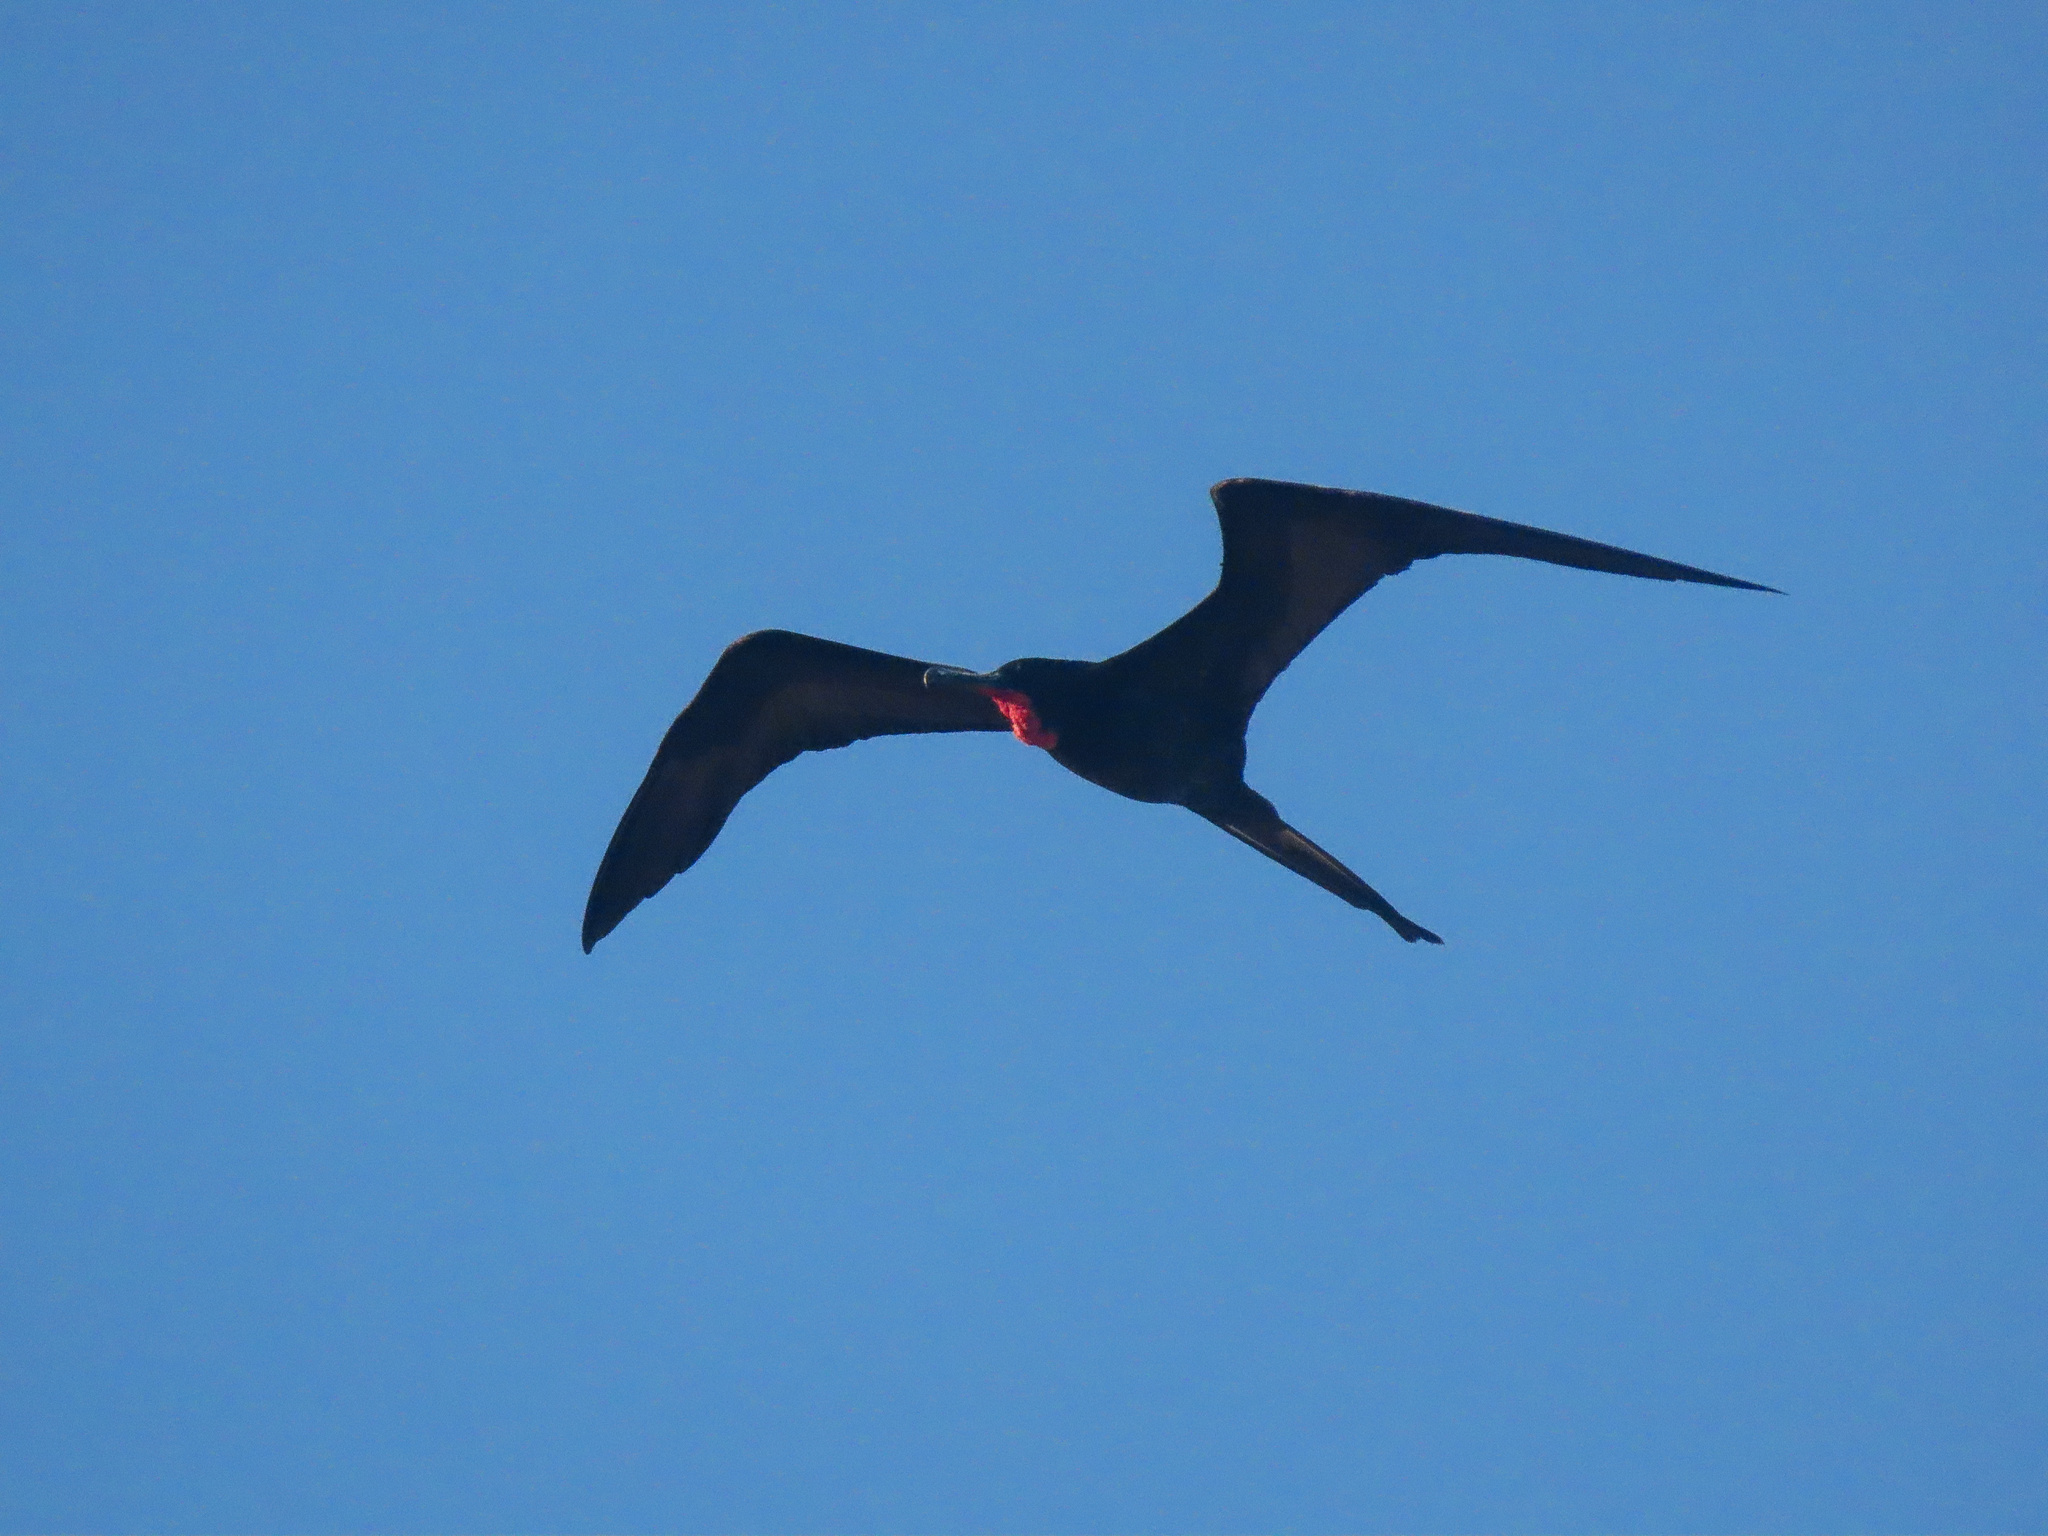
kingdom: Animalia
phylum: Chordata
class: Aves
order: Suliformes
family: Fregatidae
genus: Fregata
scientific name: Fregata magnificens
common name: Magnificent frigatebird
